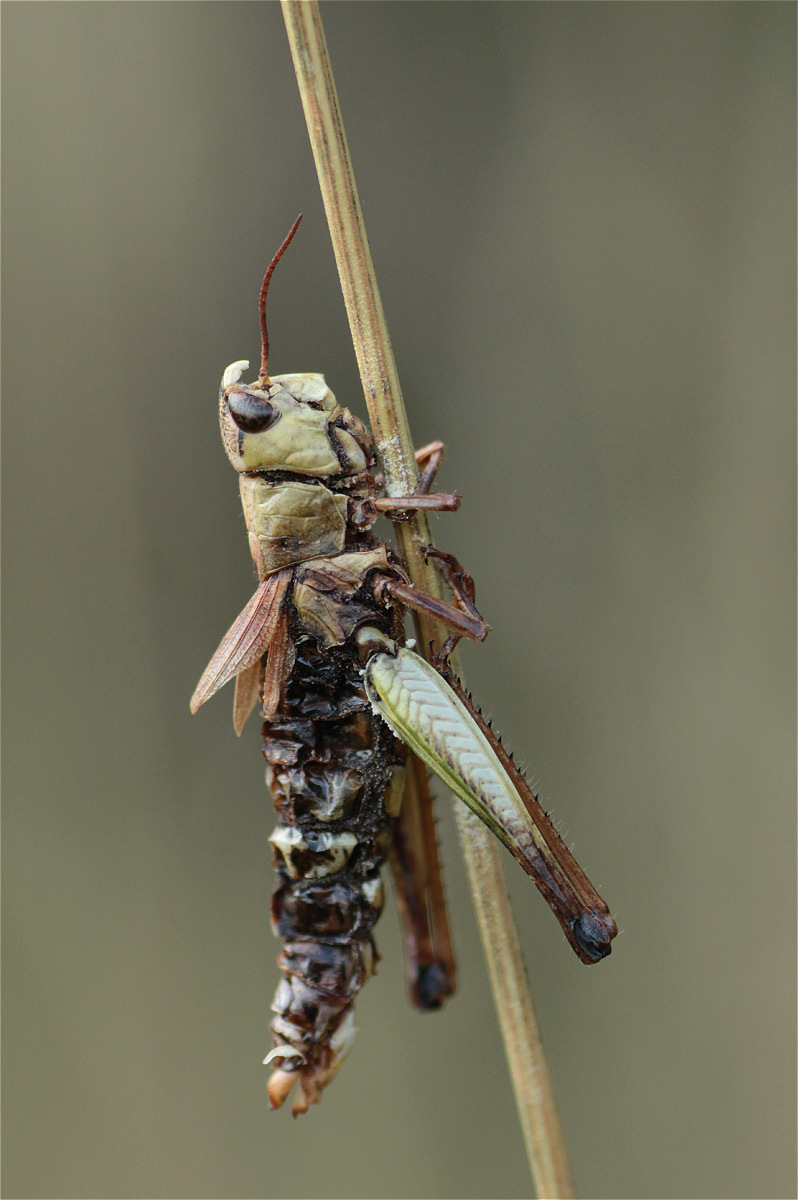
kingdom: Fungi
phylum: Entomophthoromycota
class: Entomophthoromycetes
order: Entomophthorales
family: Entomophthoraceae
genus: Entomophaga
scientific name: Entomophaga grylli
